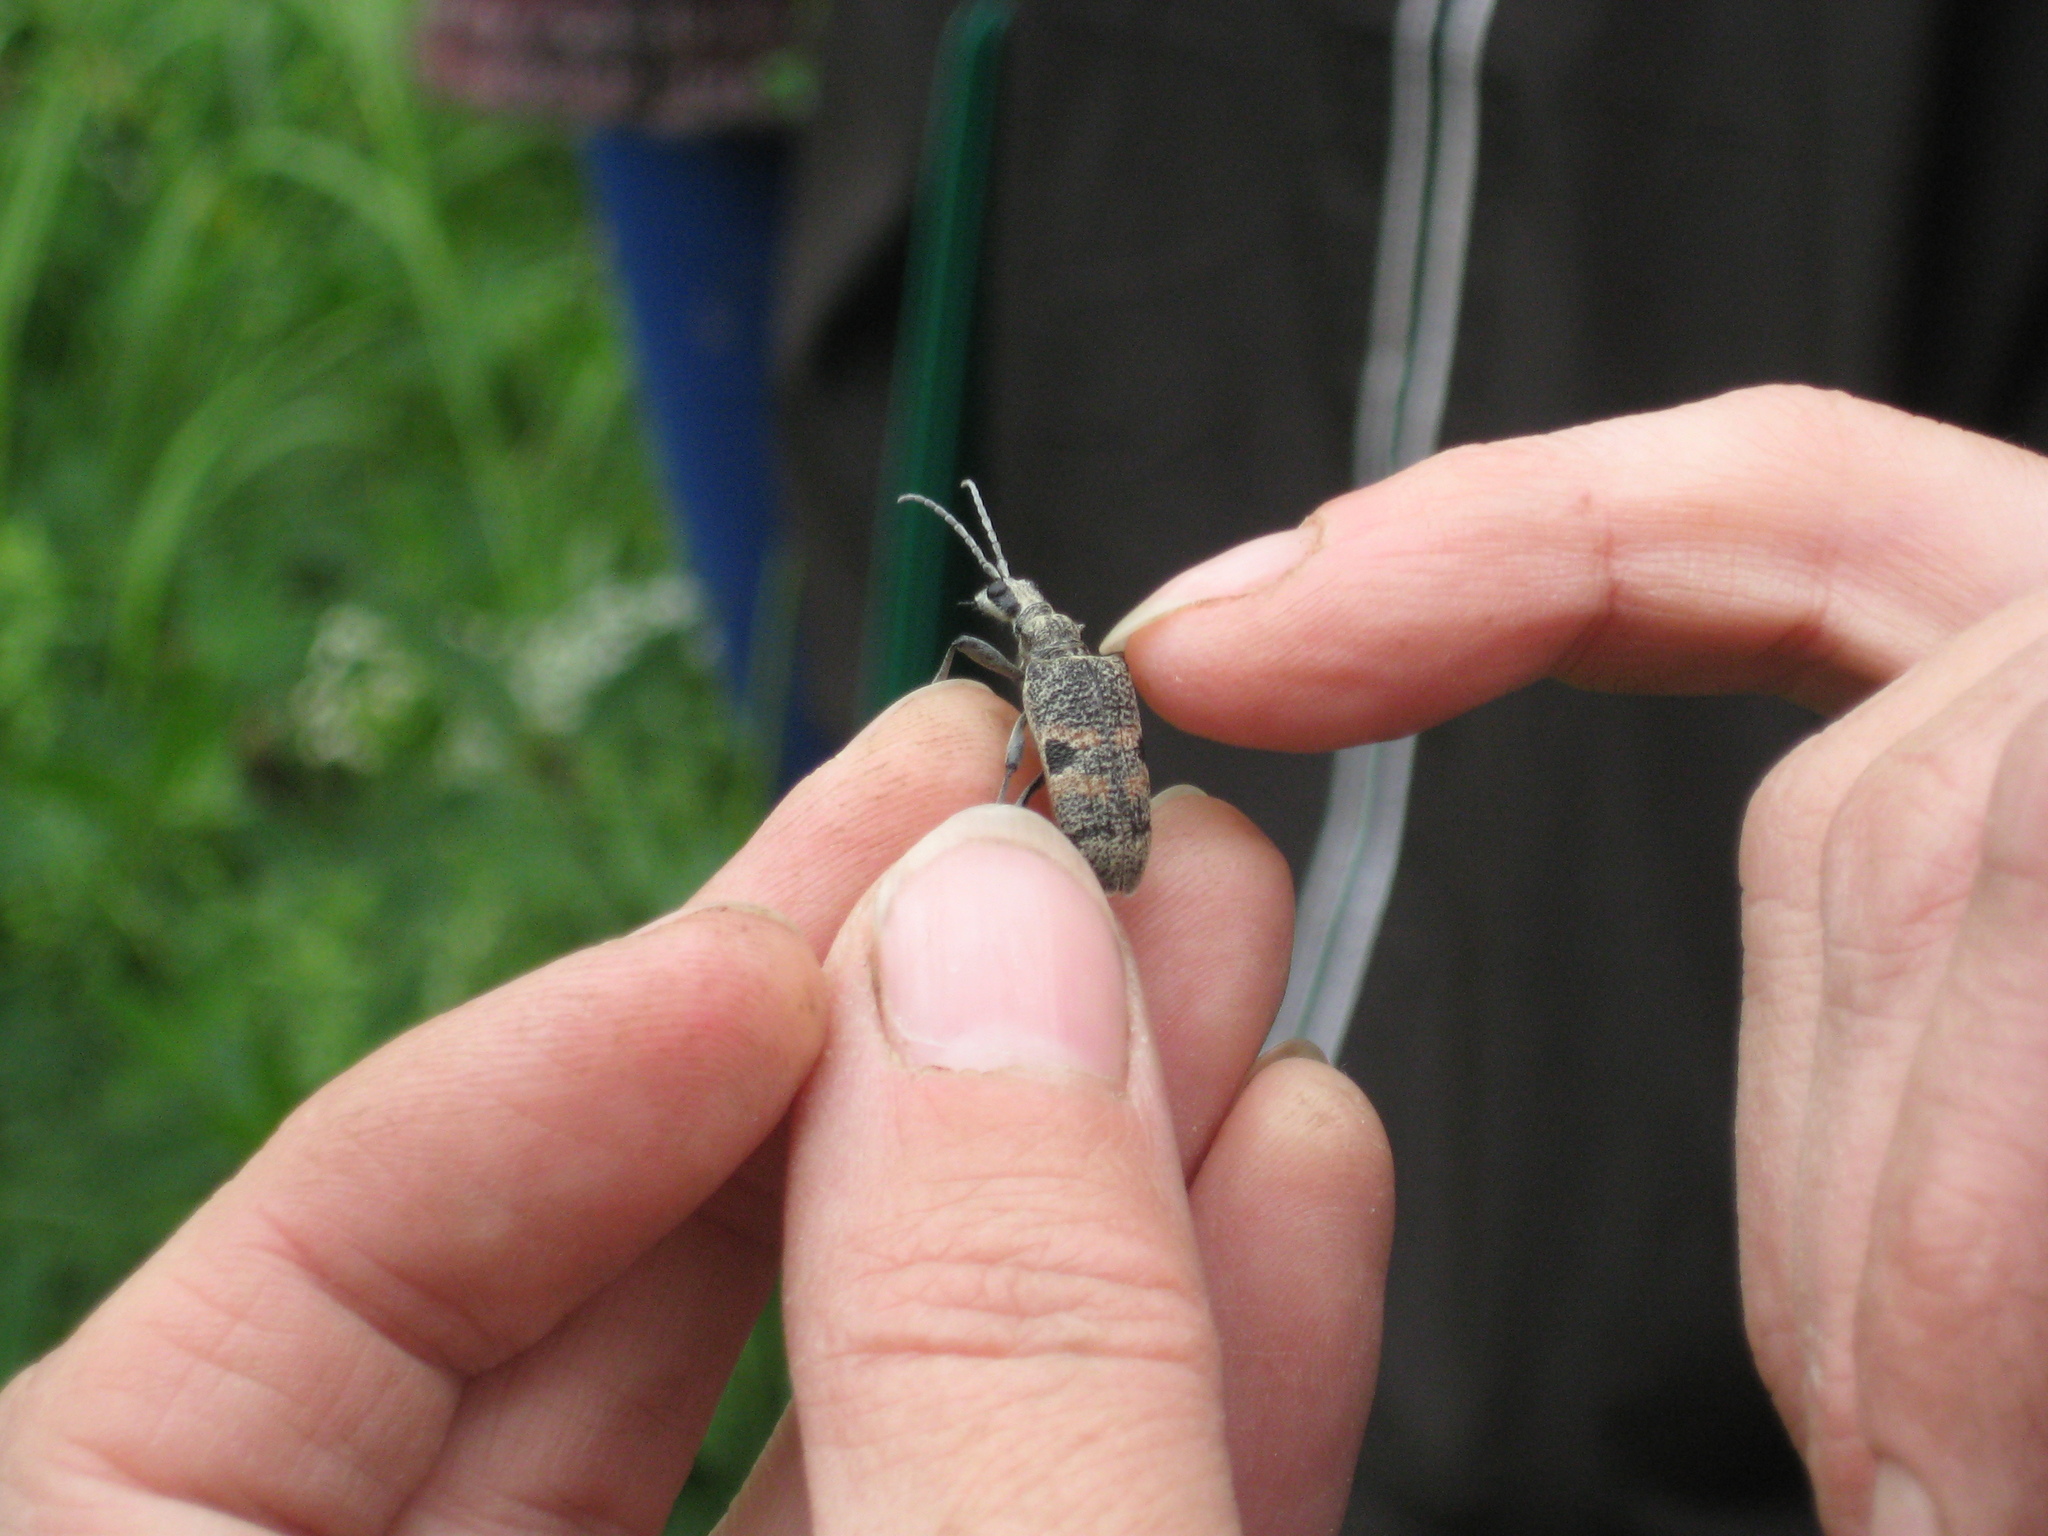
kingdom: Animalia
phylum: Arthropoda
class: Insecta
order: Coleoptera
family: Cerambycidae
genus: Rhagium
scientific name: Rhagium mordax
